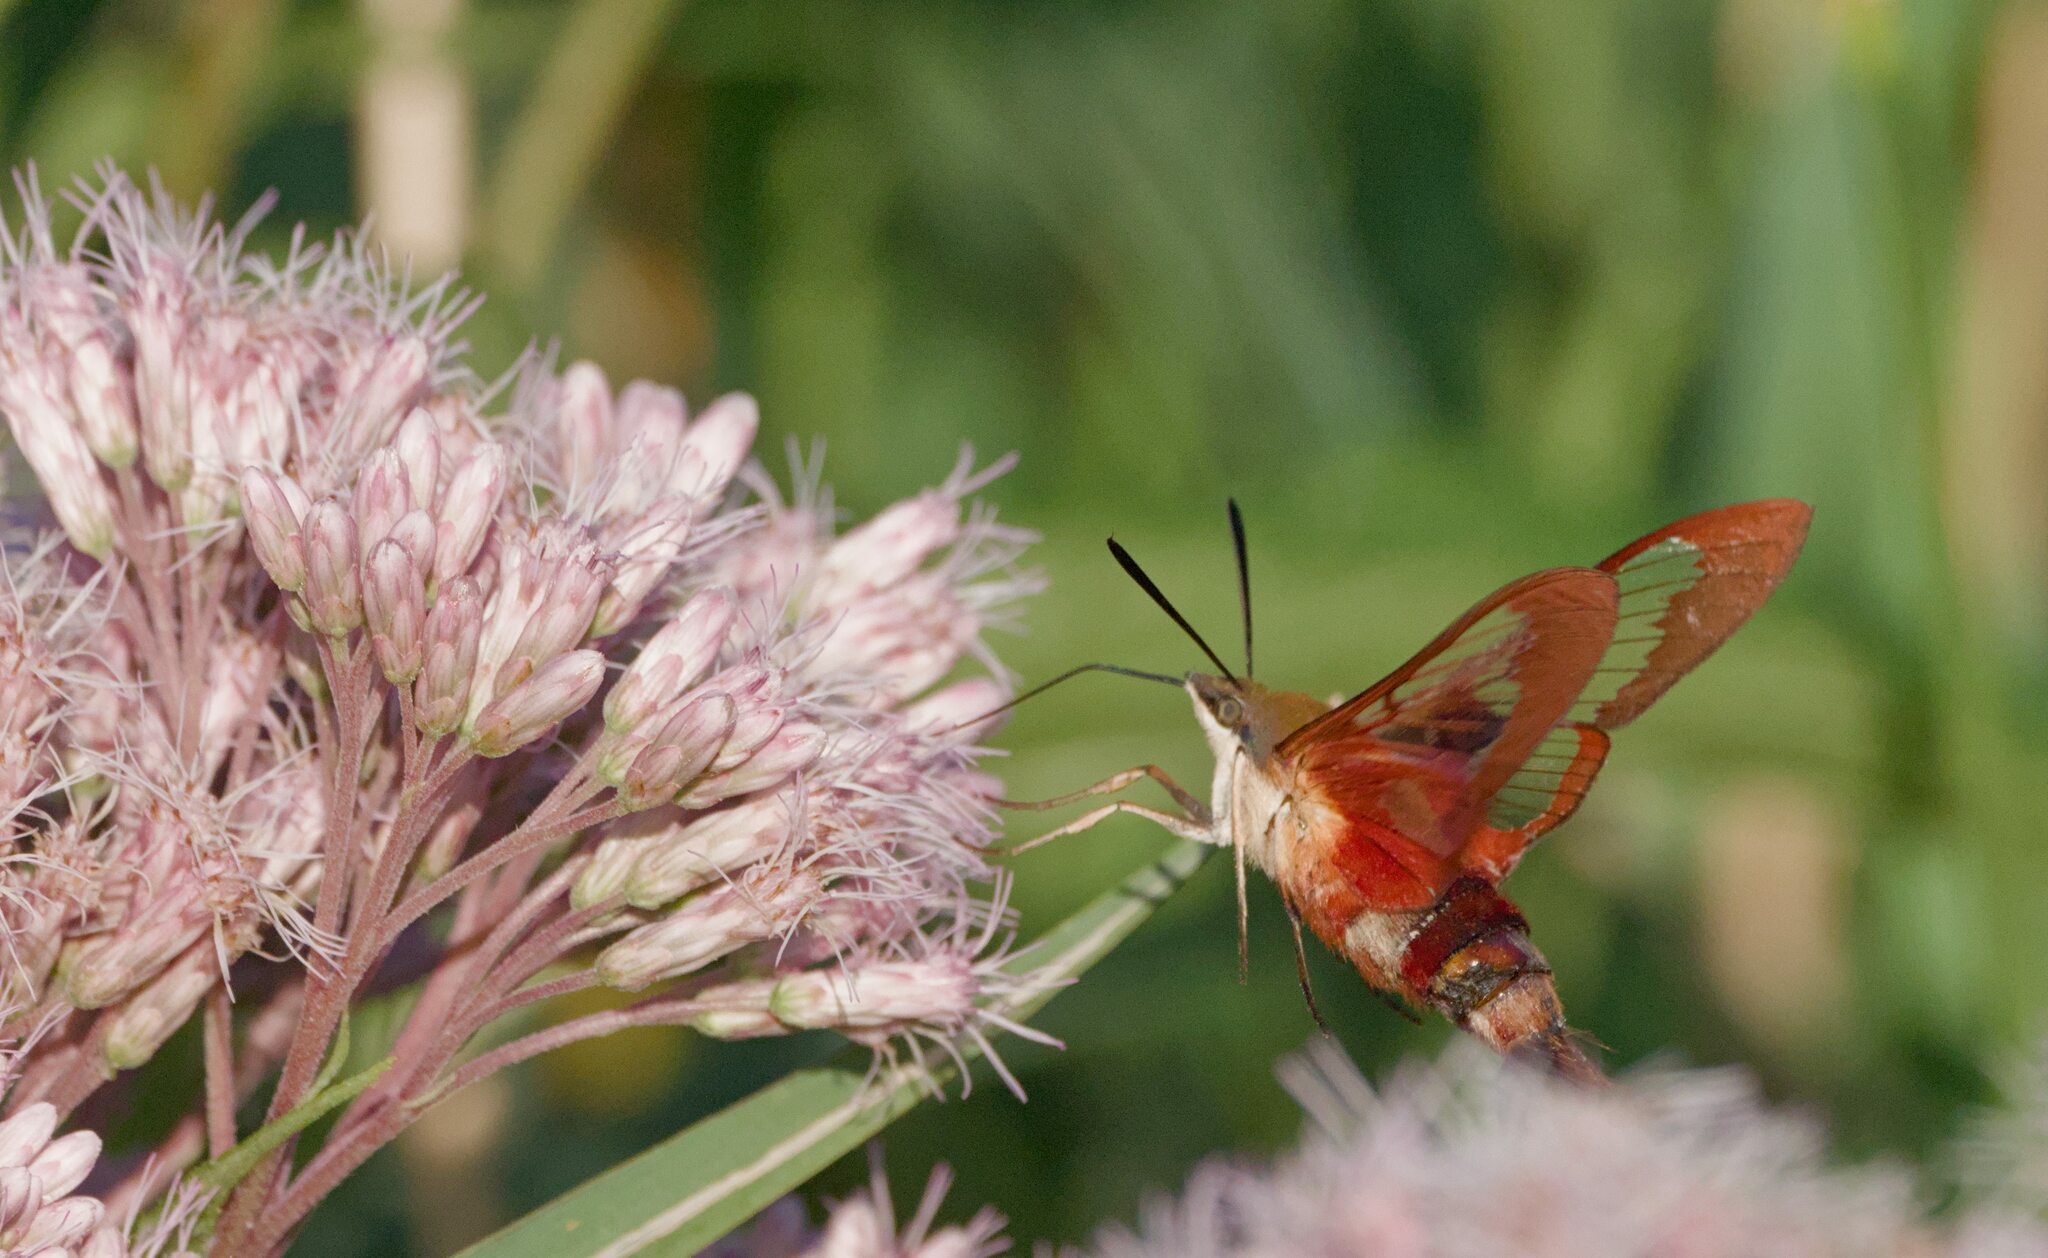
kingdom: Animalia
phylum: Arthropoda
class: Insecta
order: Lepidoptera
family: Sphingidae
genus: Hemaris
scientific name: Hemaris thysbe
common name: Common clear-wing
